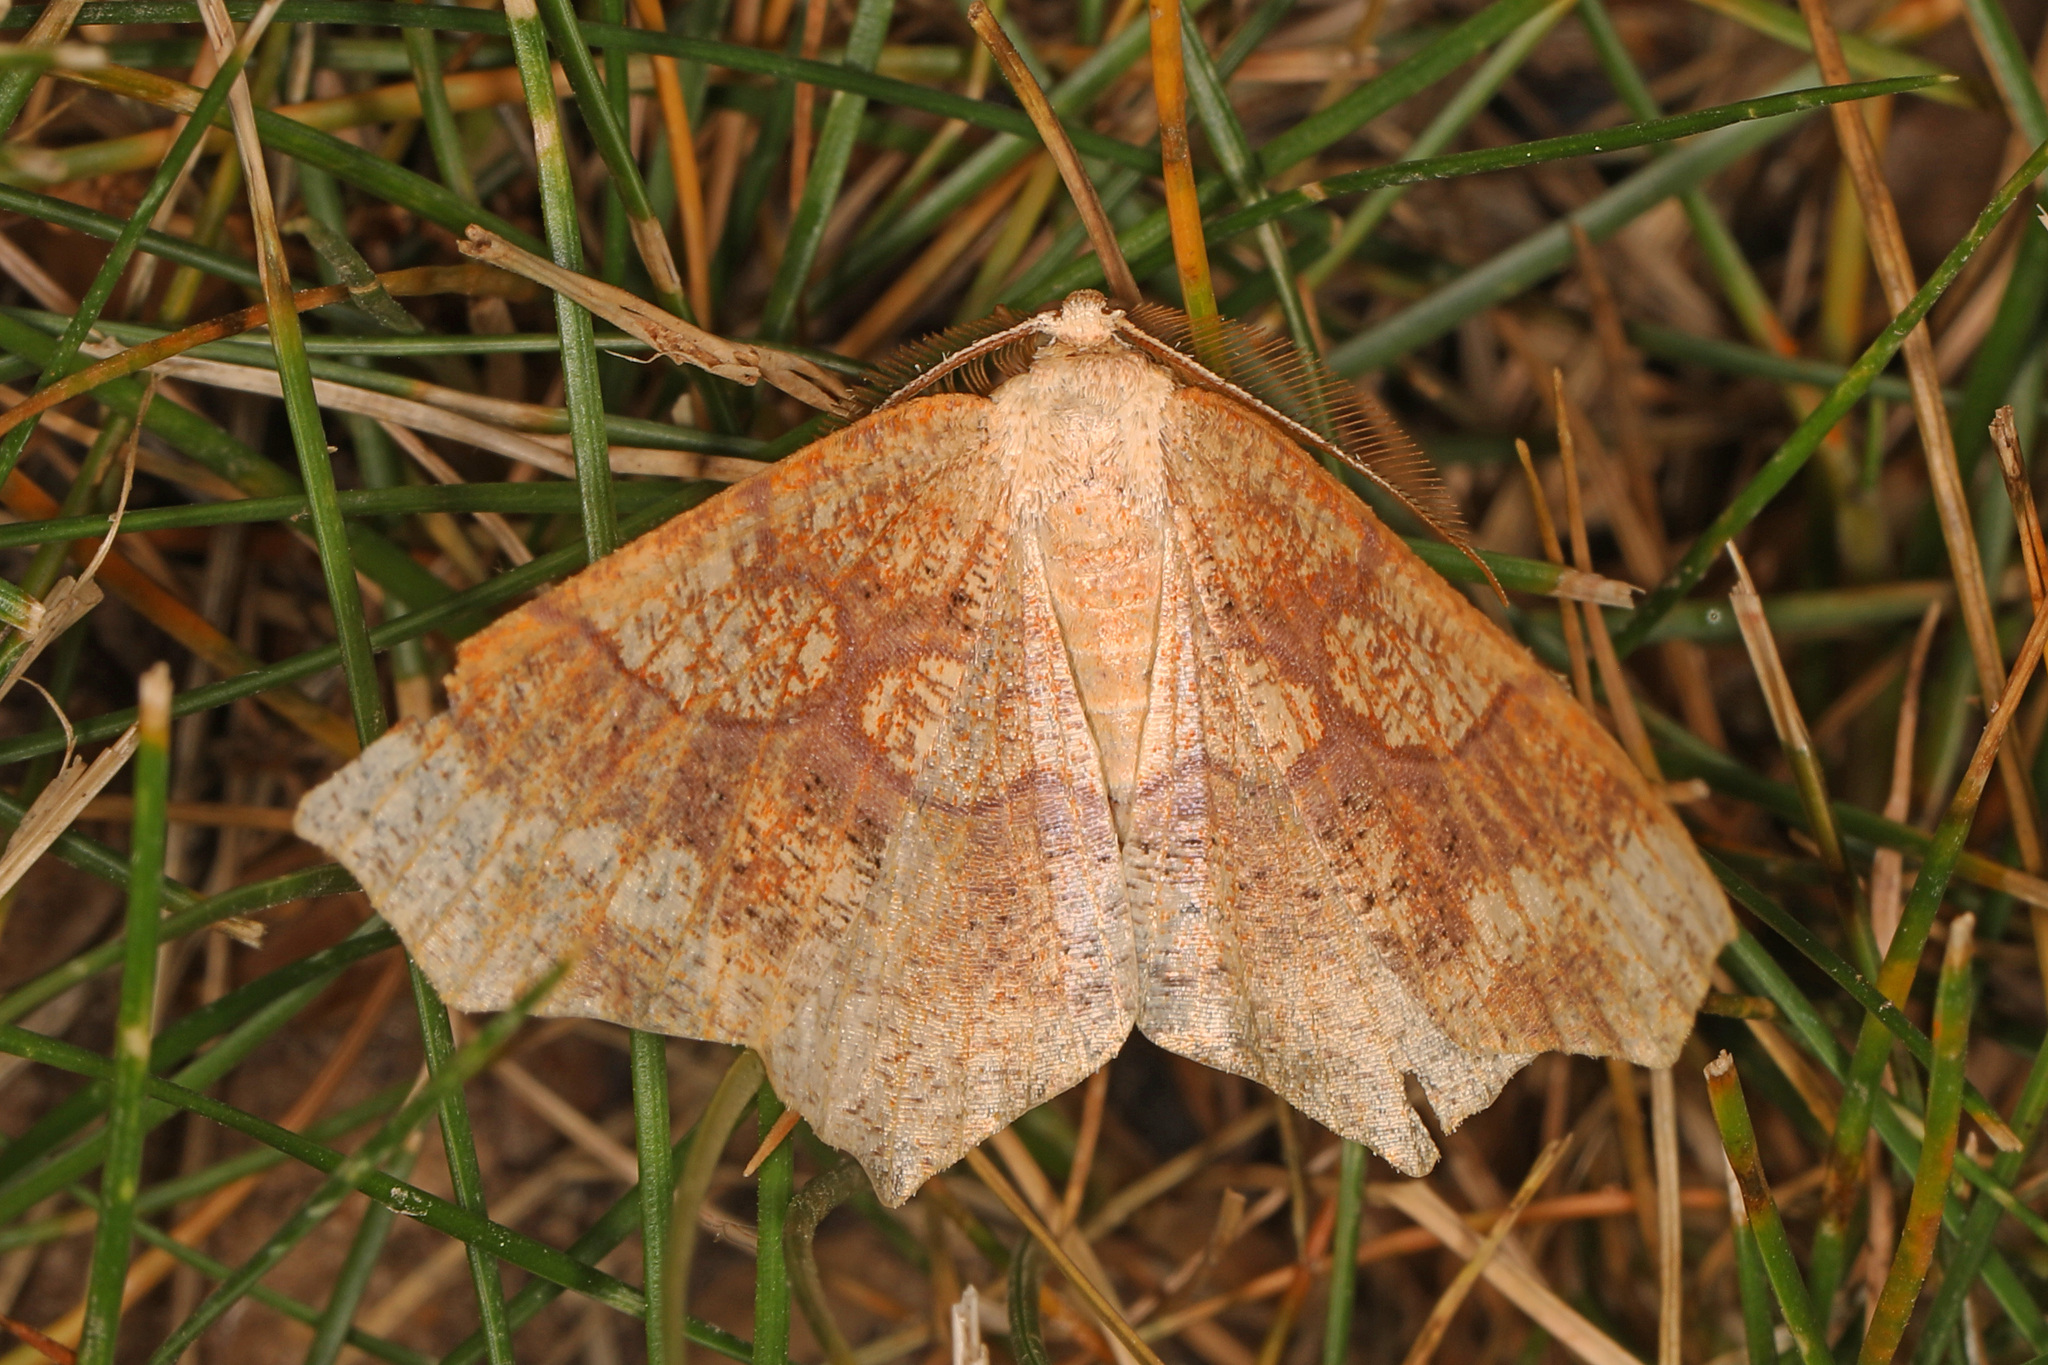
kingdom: Animalia
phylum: Arthropoda
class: Insecta
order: Lepidoptera
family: Geometridae
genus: Besma
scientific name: Besma quercivoraria
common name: Oak besma
